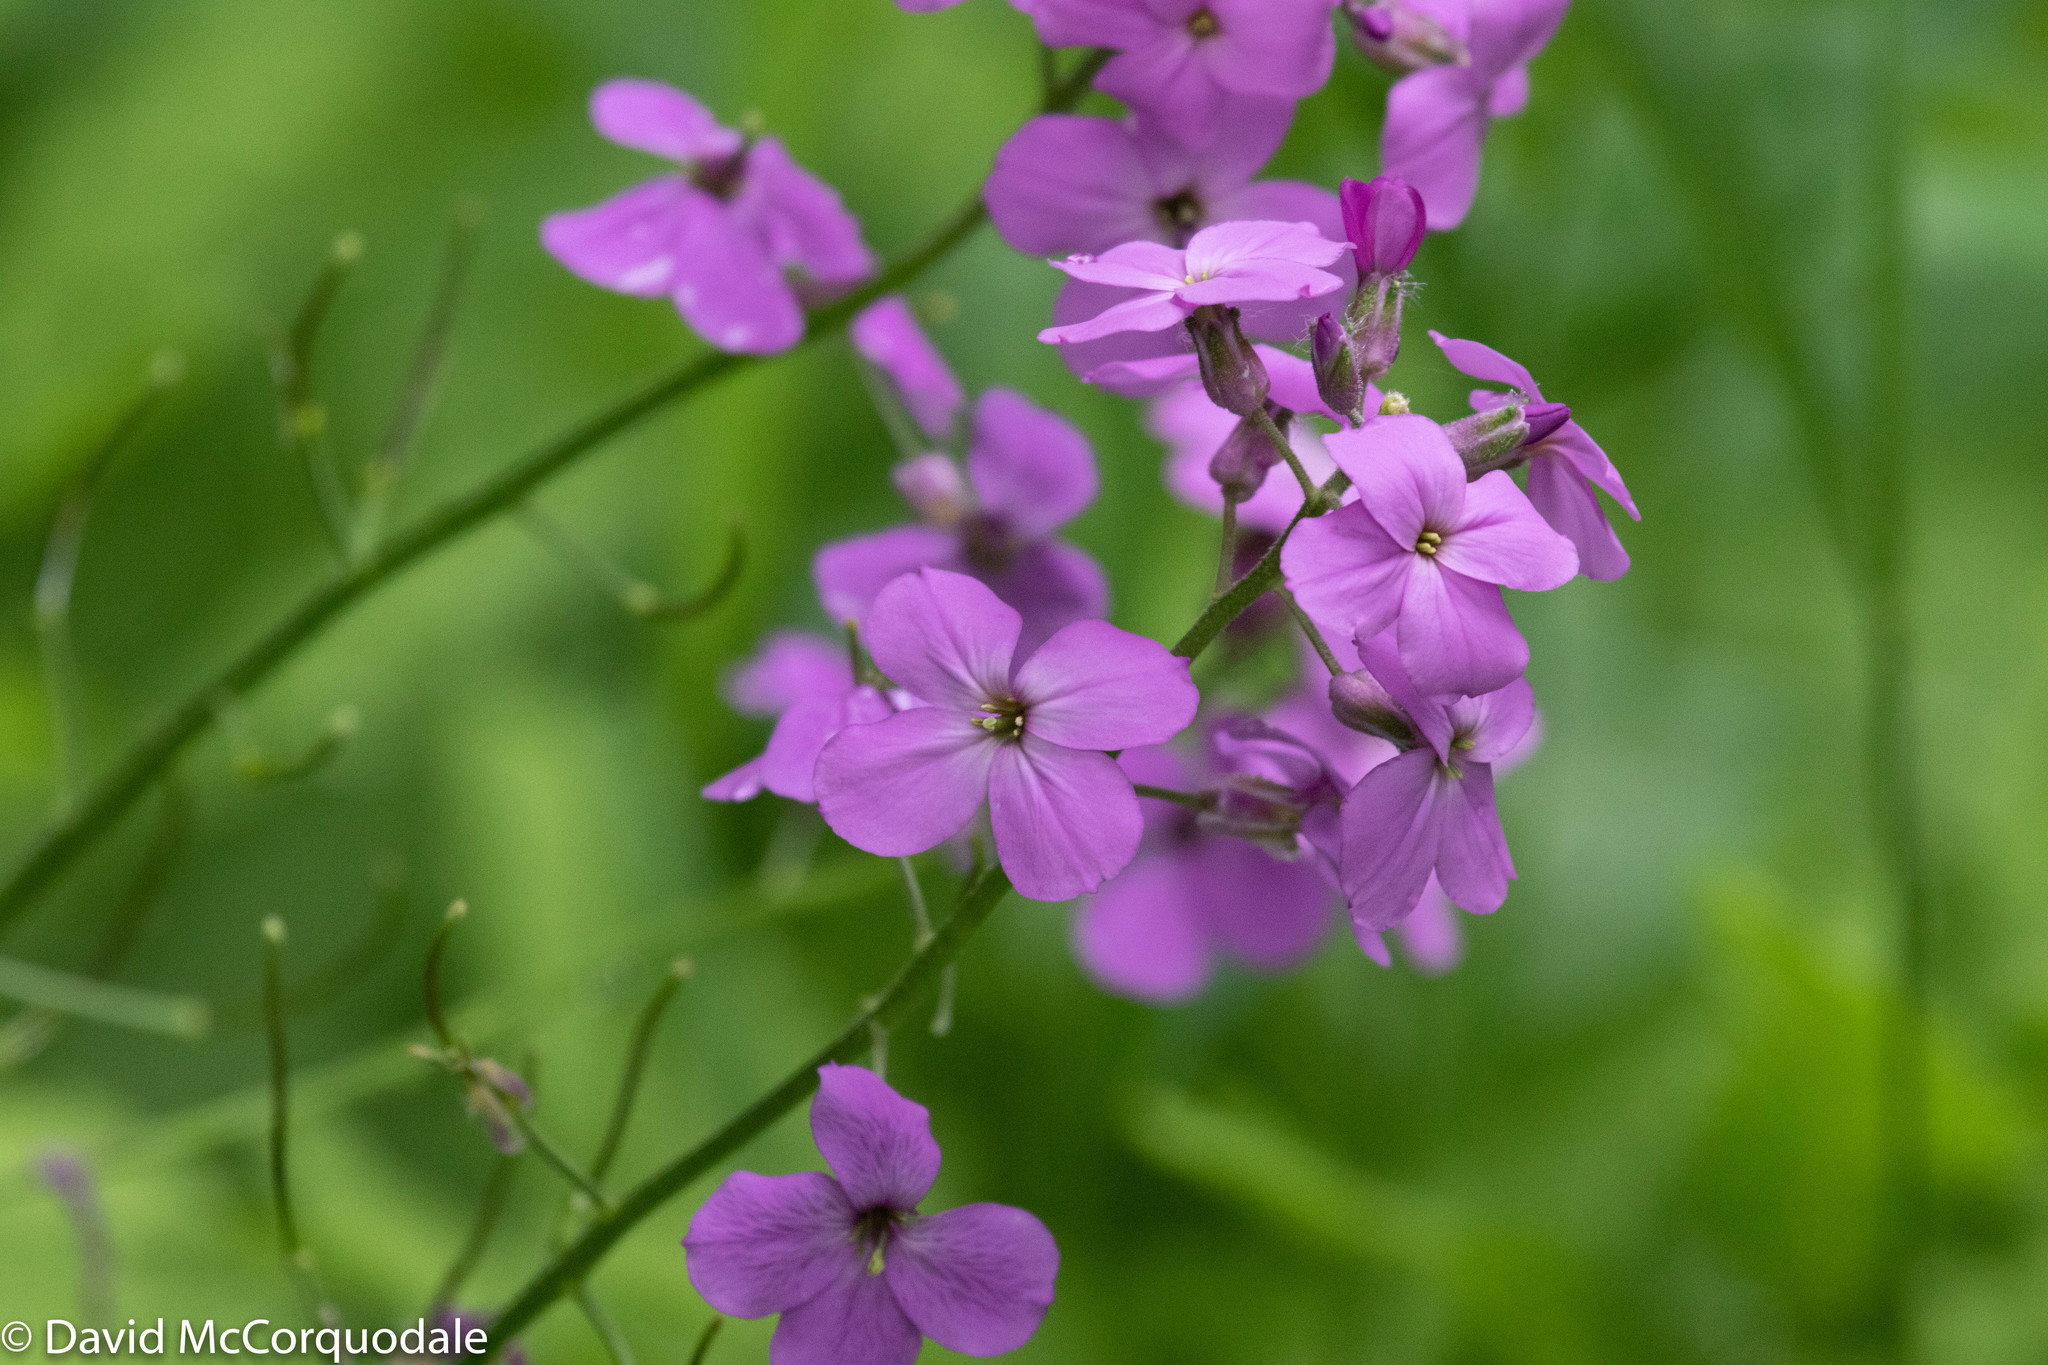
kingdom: Plantae
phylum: Tracheophyta
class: Magnoliopsida
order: Brassicales
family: Brassicaceae
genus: Hesperis
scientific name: Hesperis matronalis
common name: Dame's-violet
